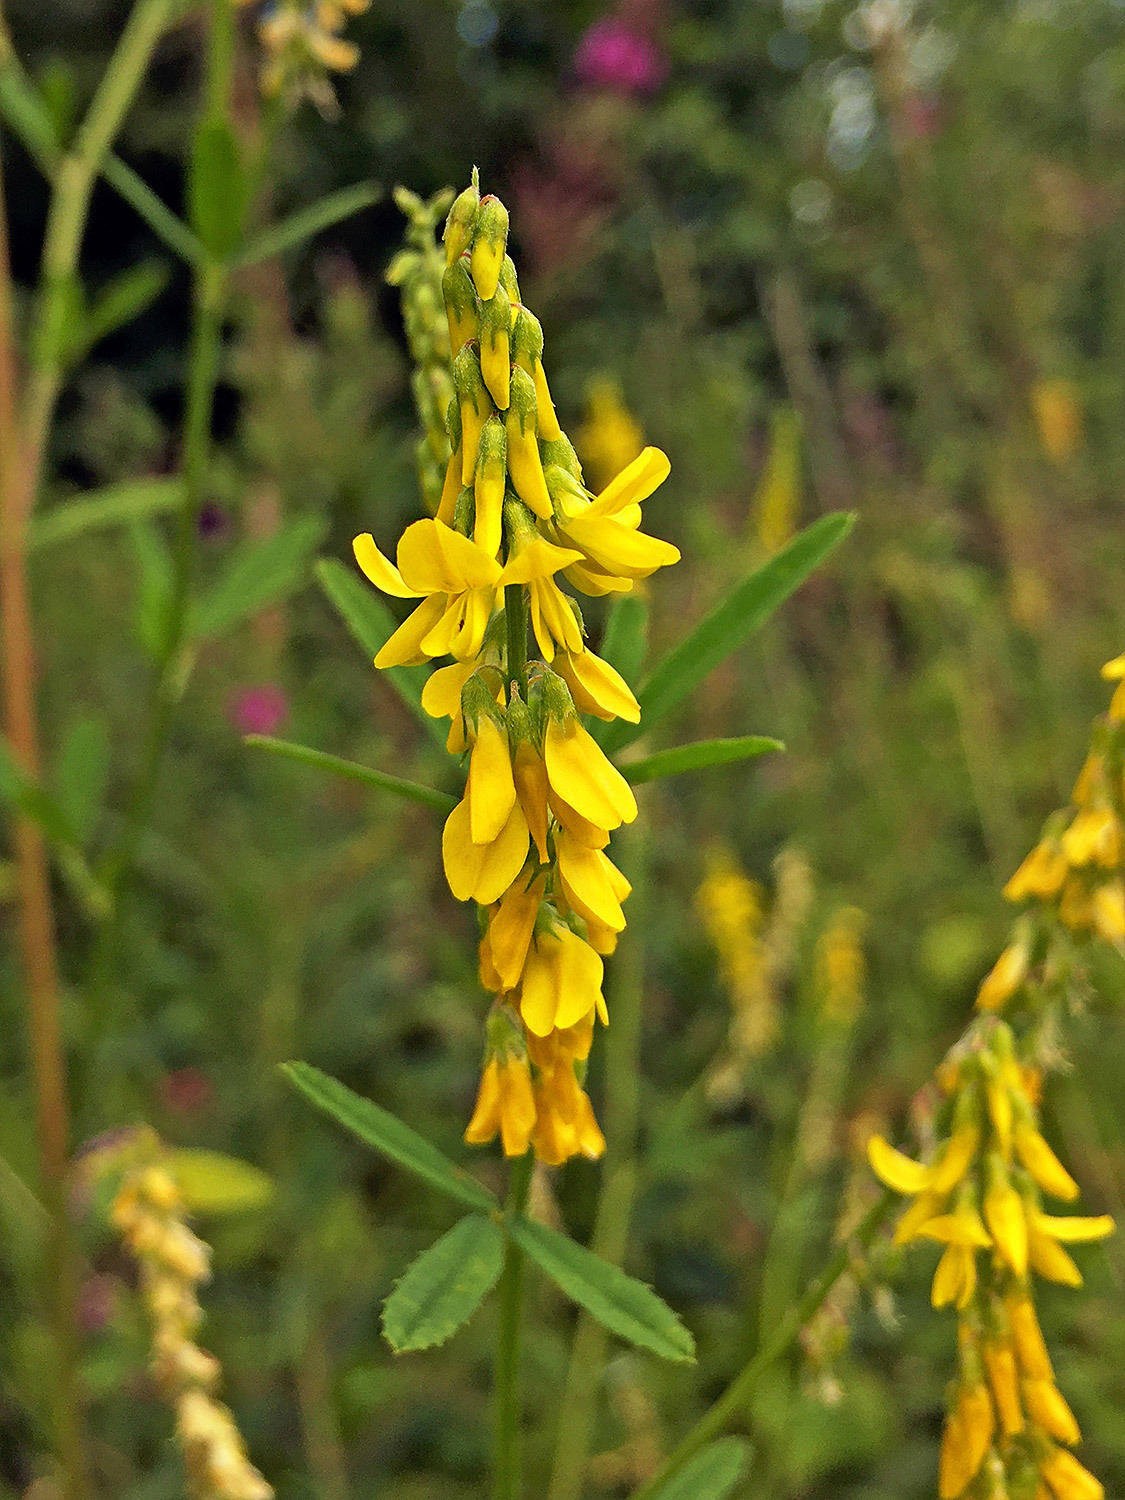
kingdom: Plantae
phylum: Tracheophyta
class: Magnoliopsida
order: Fabales
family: Fabaceae
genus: Melilotus
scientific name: Melilotus officinalis
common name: Sweetclover
